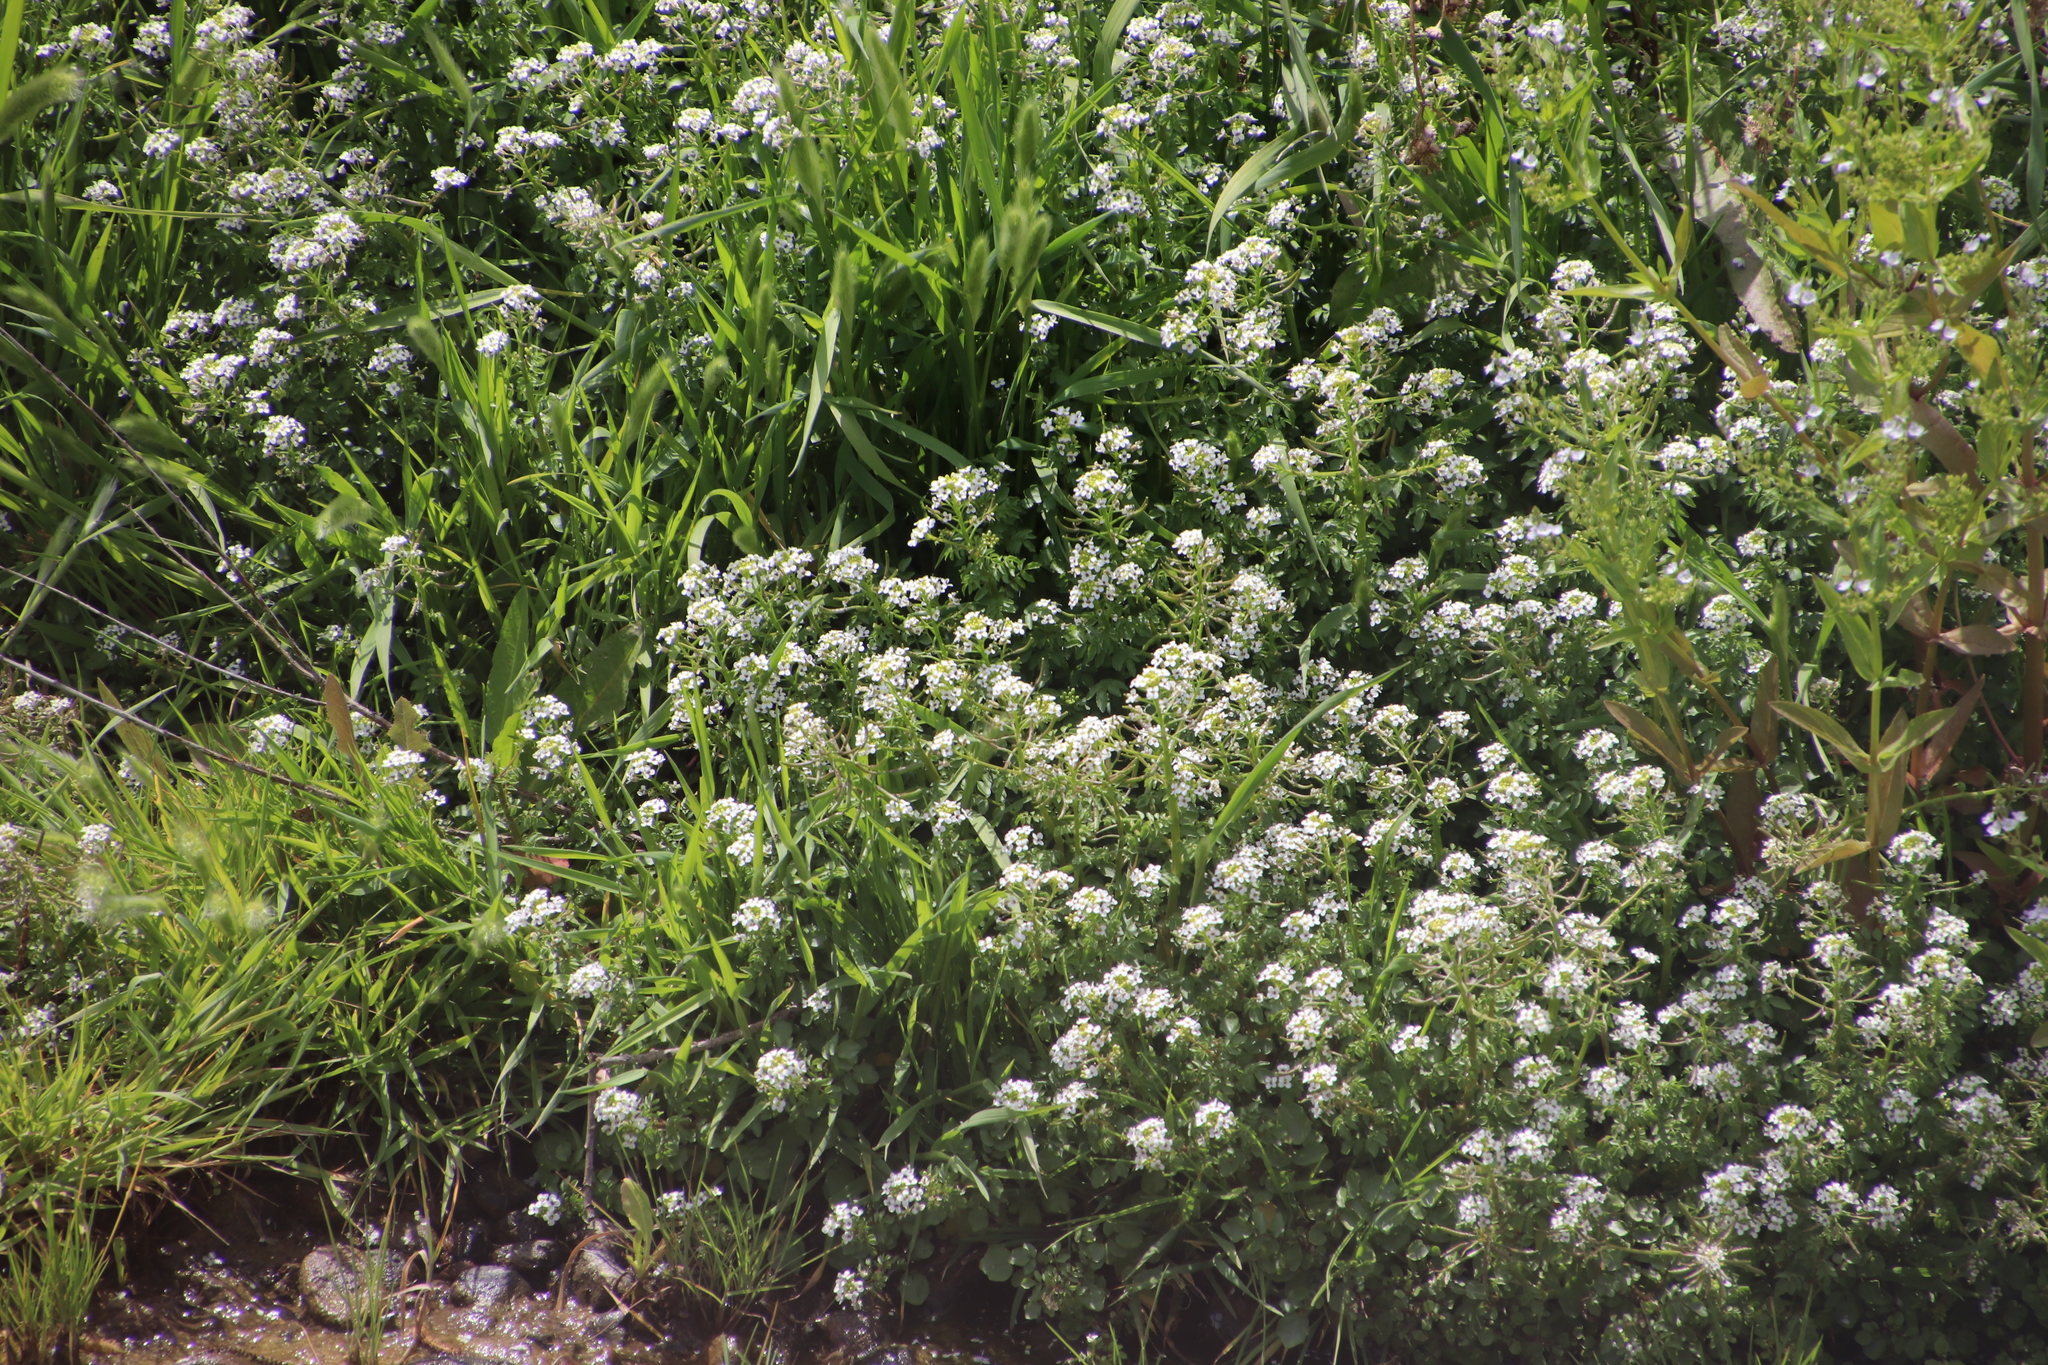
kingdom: Plantae
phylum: Tracheophyta
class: Magnoliopsida
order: Brassicales
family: Brassicaceae
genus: Nasturtium
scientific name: Nasturtium officinale
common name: Watercress
